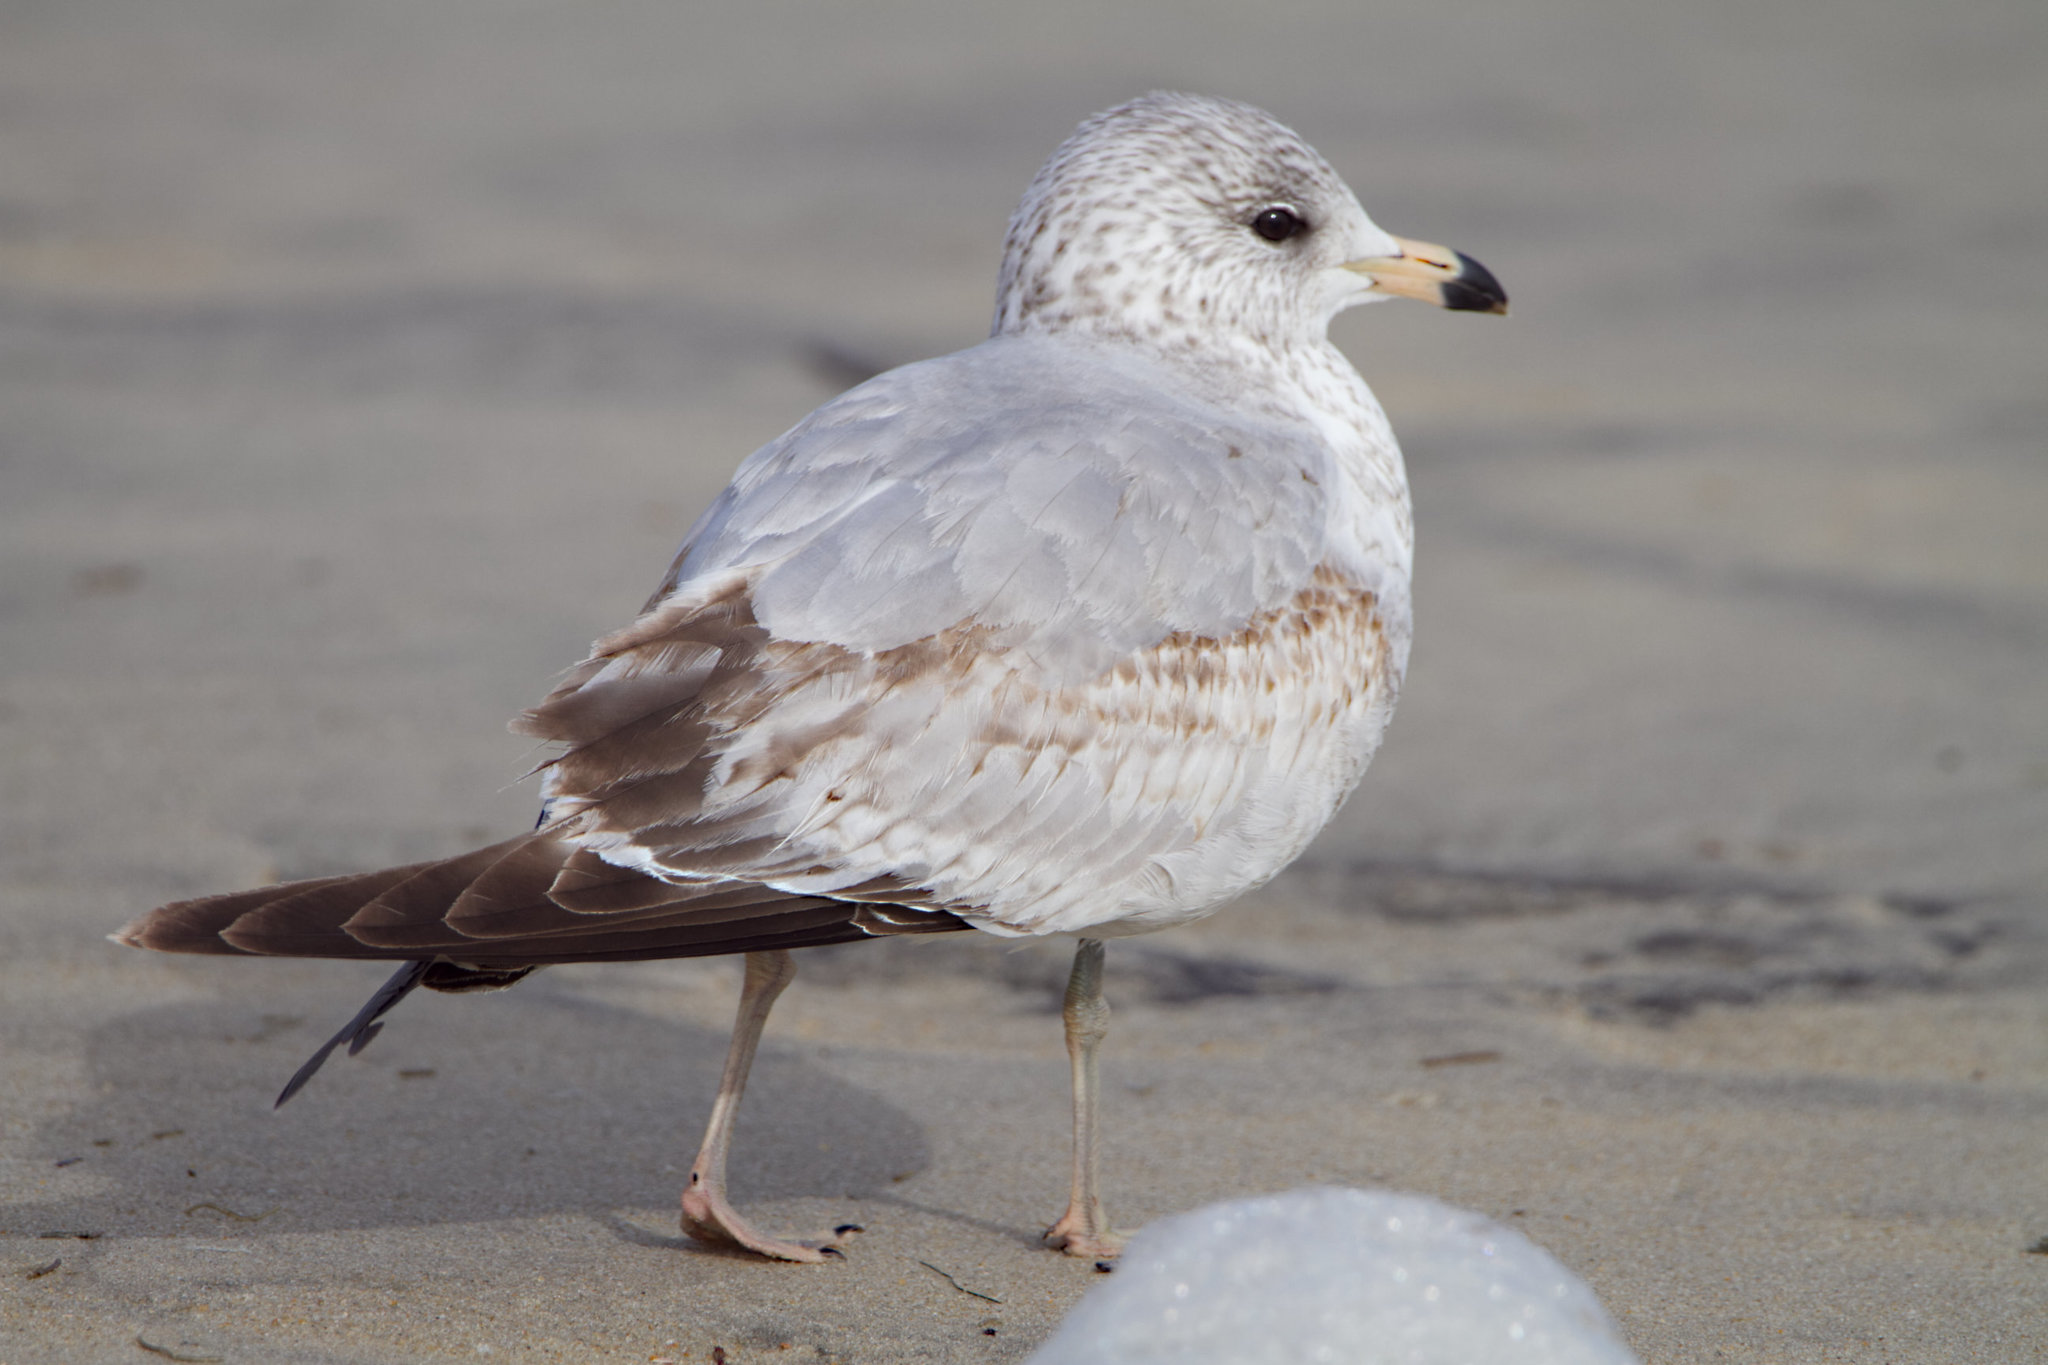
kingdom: Animalia
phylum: Chordata
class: Aves
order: Charadriiformes
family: Laridae
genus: Larus
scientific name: Larus delawarensis
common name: Ring-billed gull
